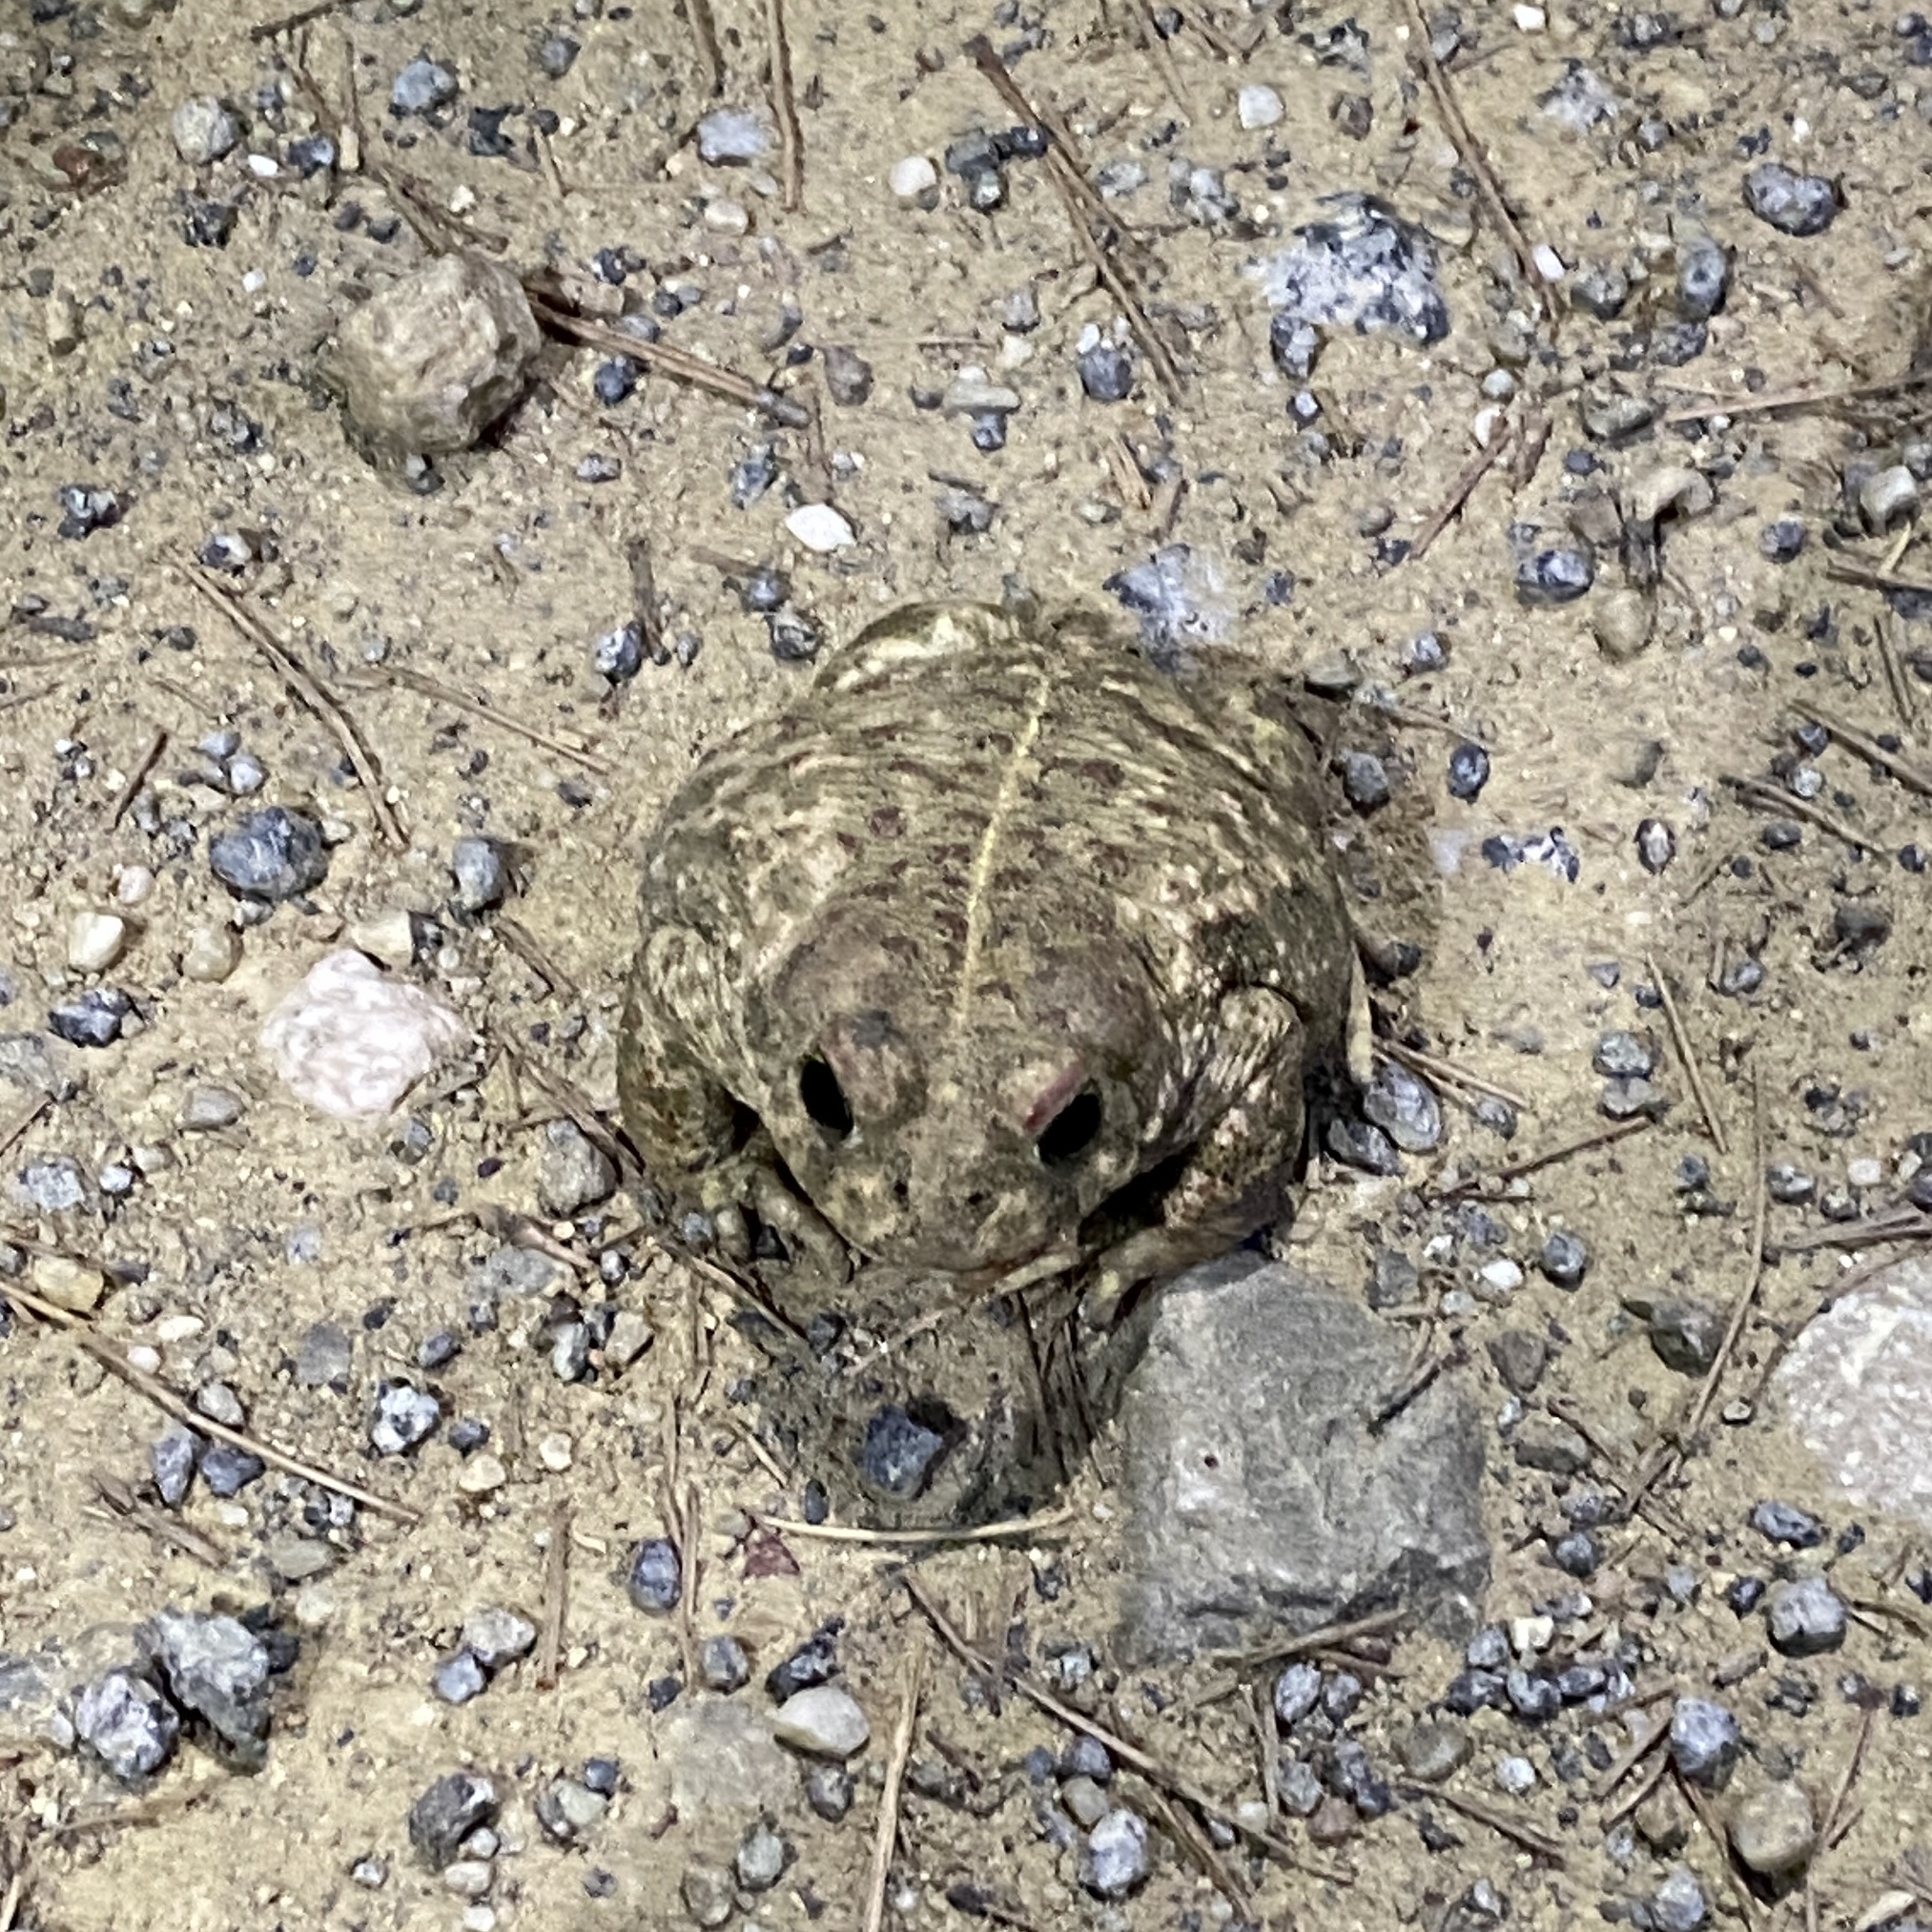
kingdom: Animalia
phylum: Chordata
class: Amphibia
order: Anura
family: Bufonidae
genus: Epidalea
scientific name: Epidalea calamita
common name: Natterjack toad
